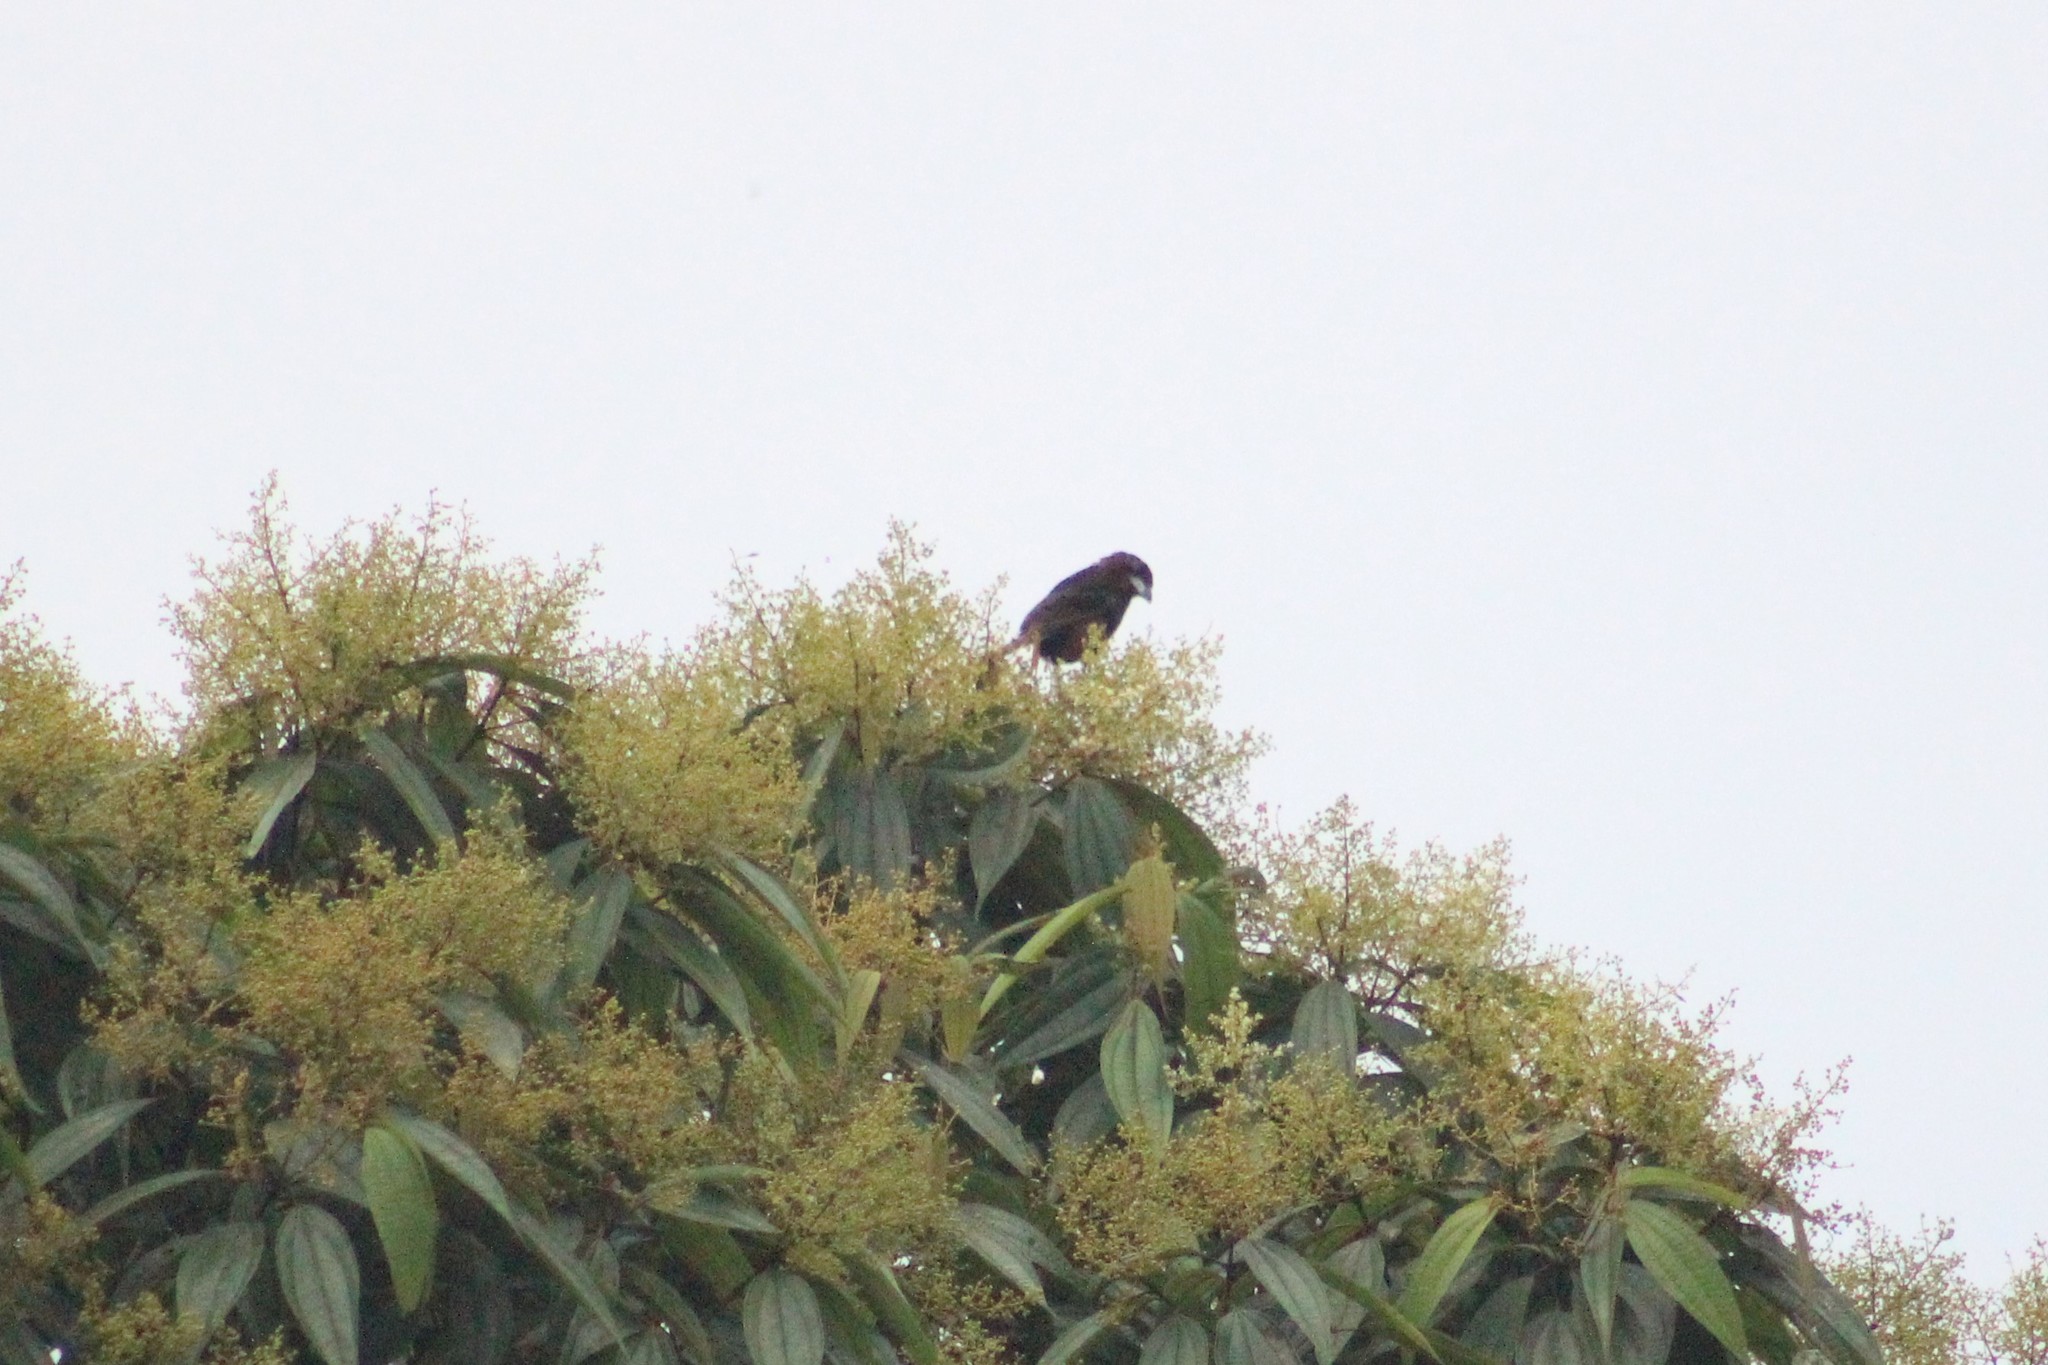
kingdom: Animalia
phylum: Chordata
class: Aves
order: Passeriformes
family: Thraupidae
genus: Ramphocelus
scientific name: Ramphocelus carbo
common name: Silver-beaked tanager
